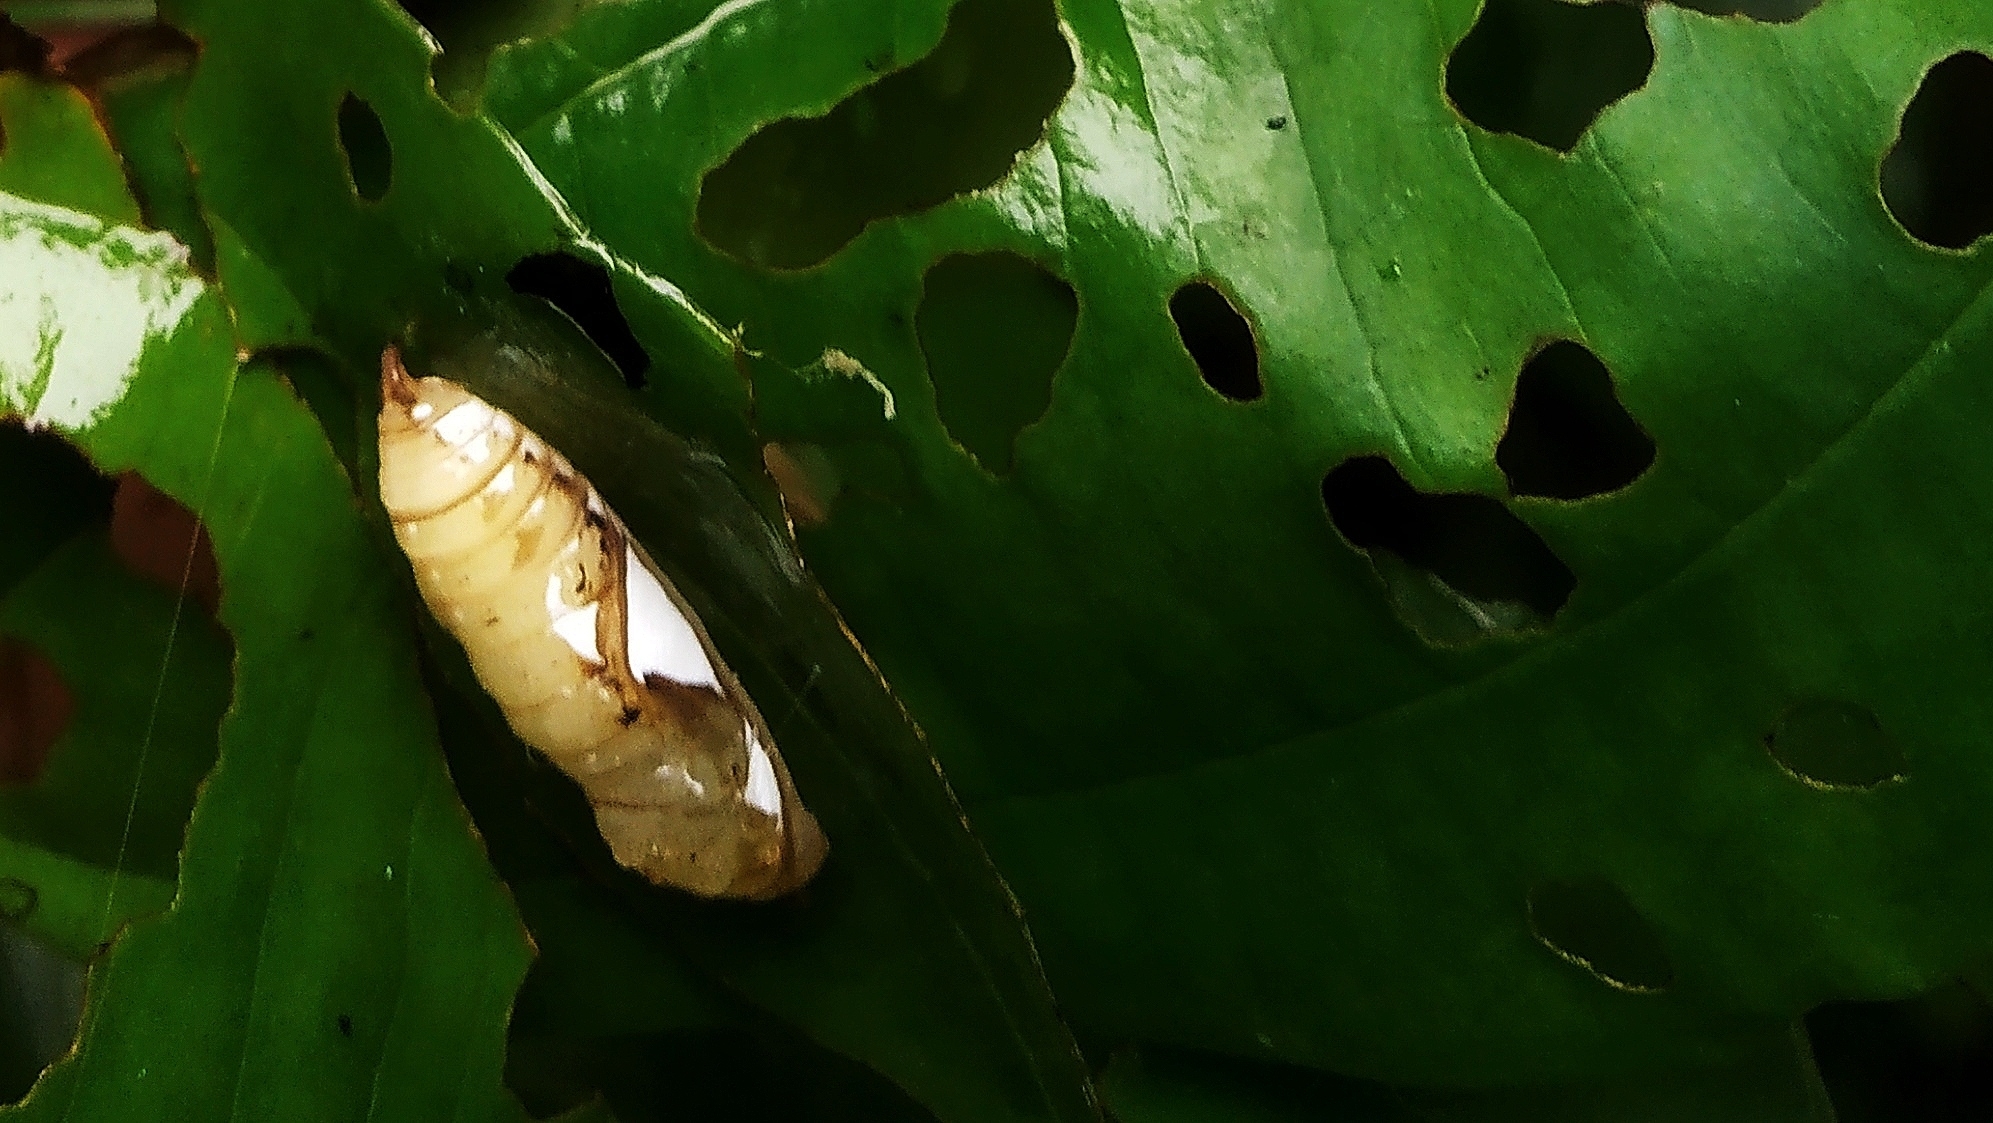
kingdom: Animalia
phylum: Arthropoda
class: Insecta
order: Lepidoptera
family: Hesperiidae
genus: Tagiades
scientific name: Tagiades litigiosa
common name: Water snow flat
